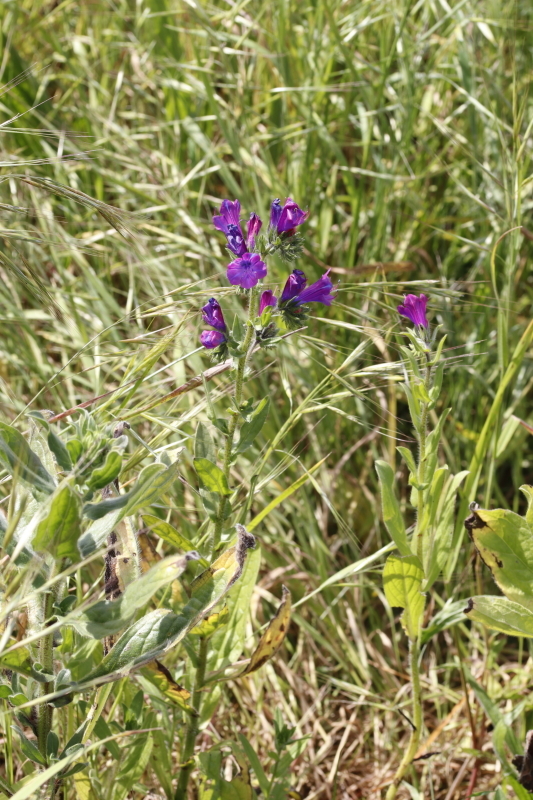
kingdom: Plantae
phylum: Tracheophyta
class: Magnoliopsida
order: Boraginales
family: Boraginaceae
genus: Echium
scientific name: Echium plantagineum
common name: Purple viper's-bugloss
